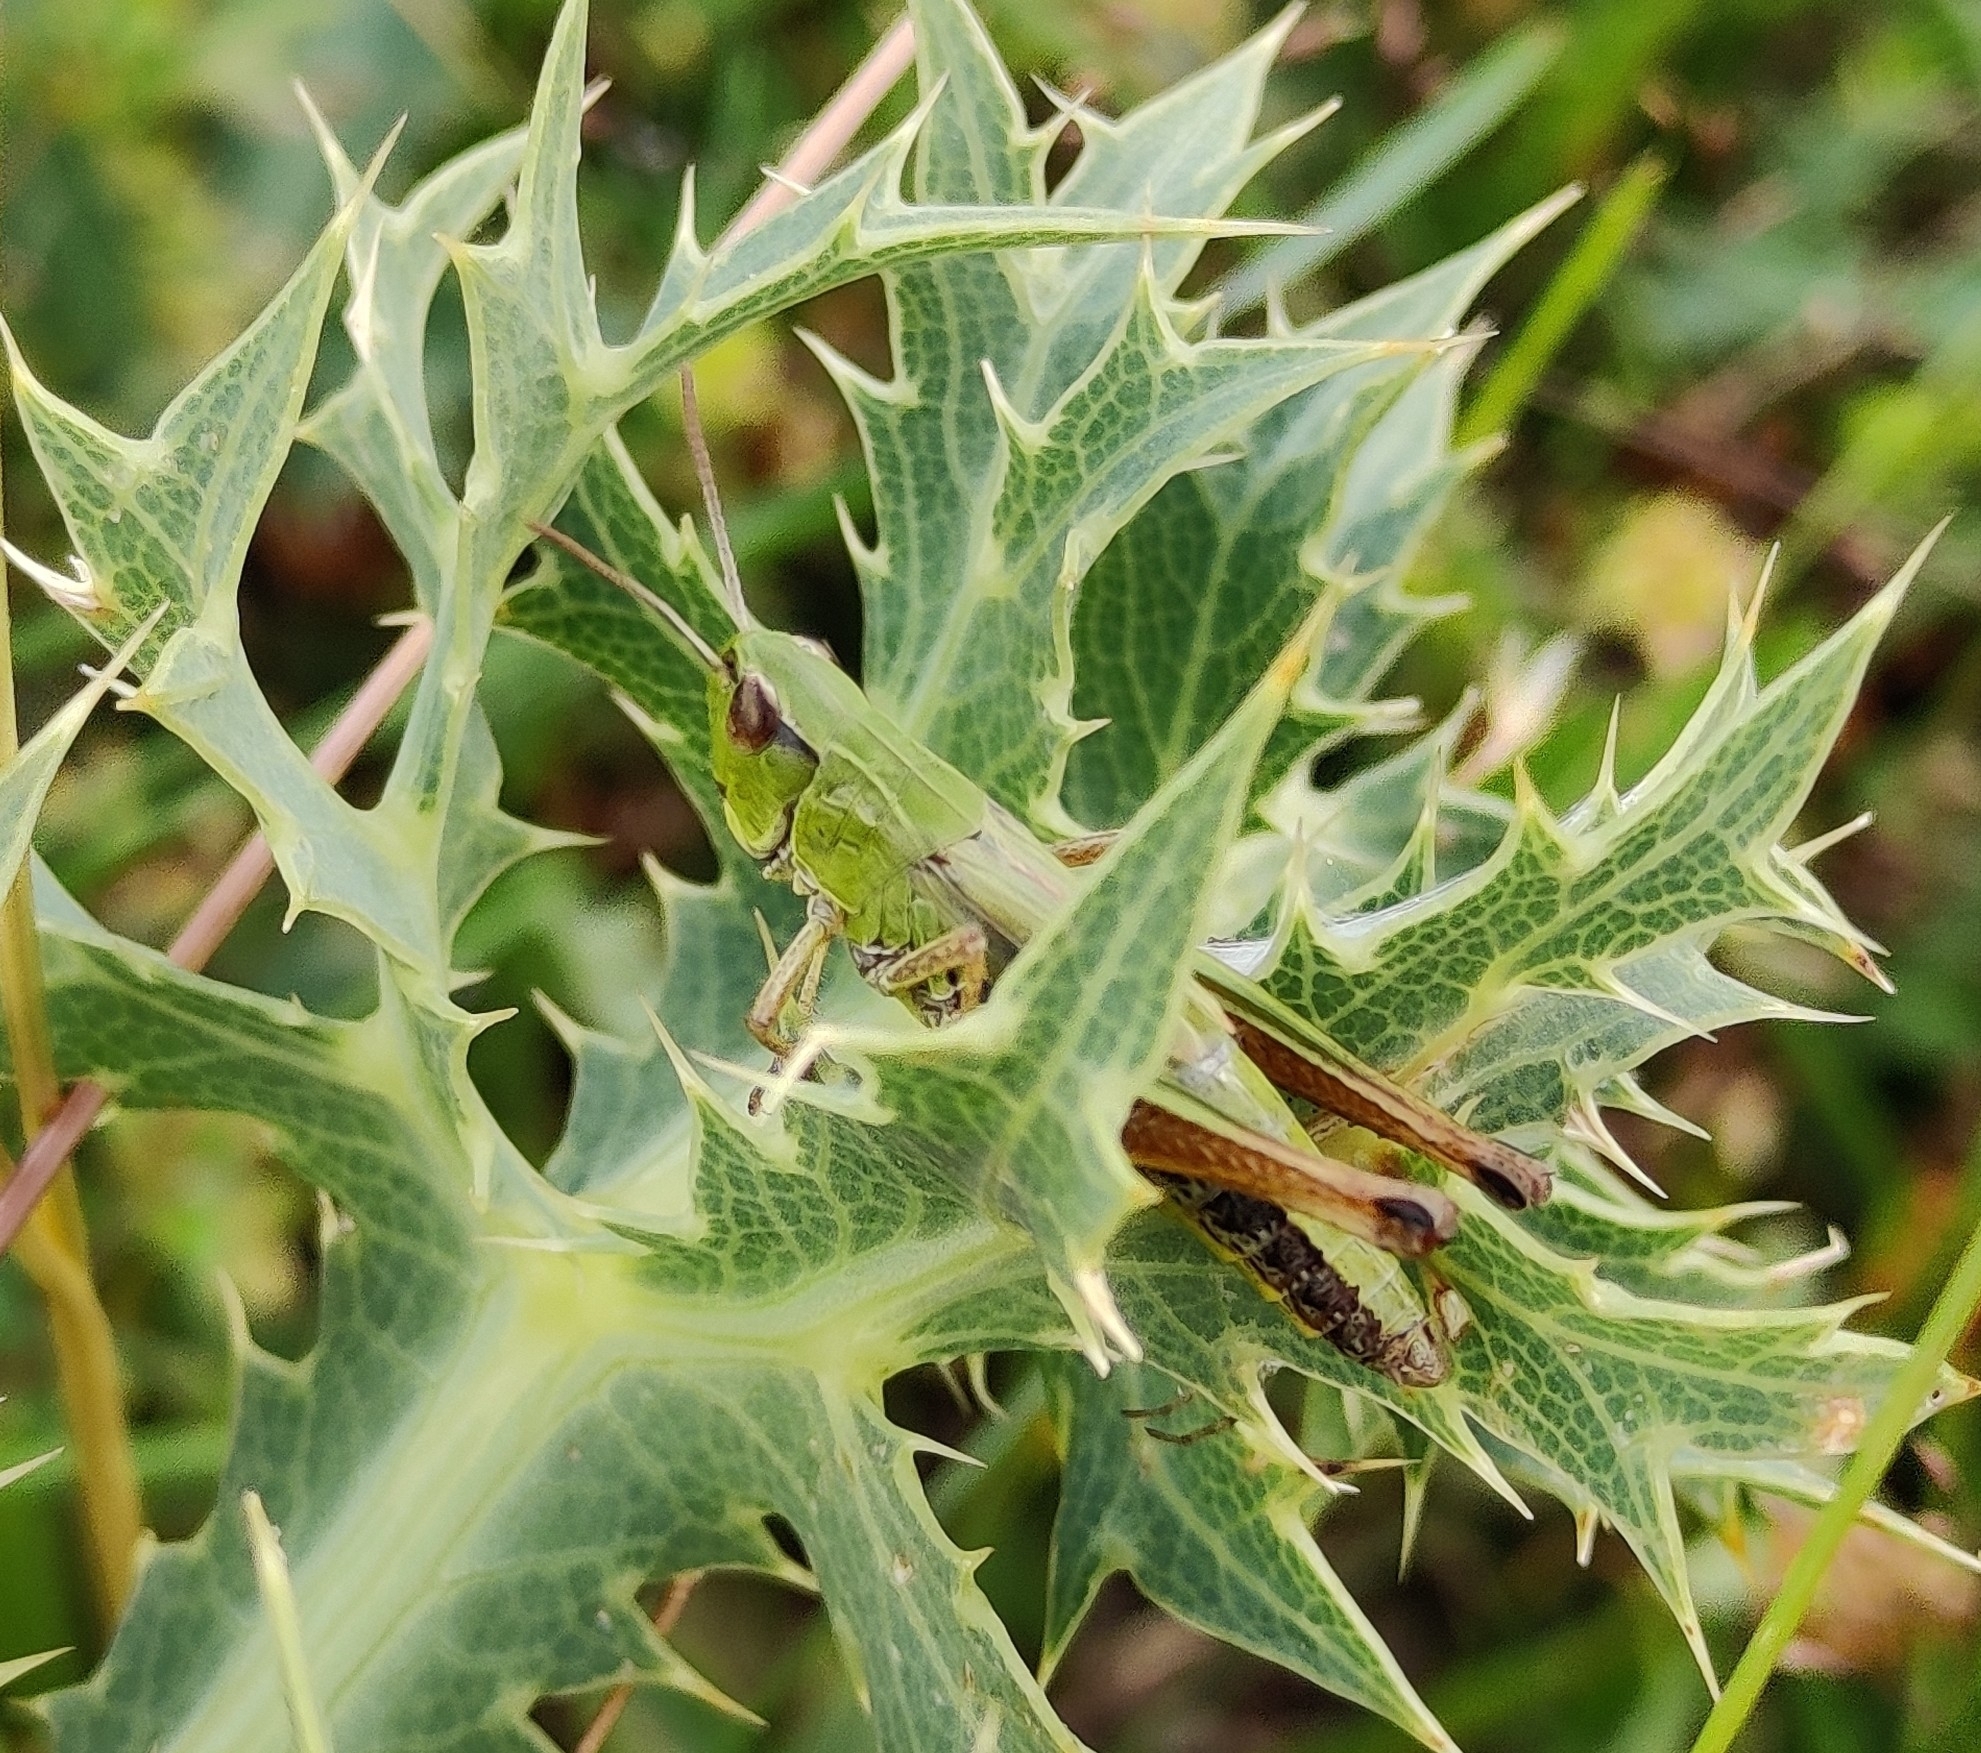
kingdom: Animalia
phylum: Arthropoda
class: Insecta
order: Orthoptera
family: Acrididae
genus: Pseudochorthippus
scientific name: Pseudochorthippus parallelus
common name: Meadow grasshopper
